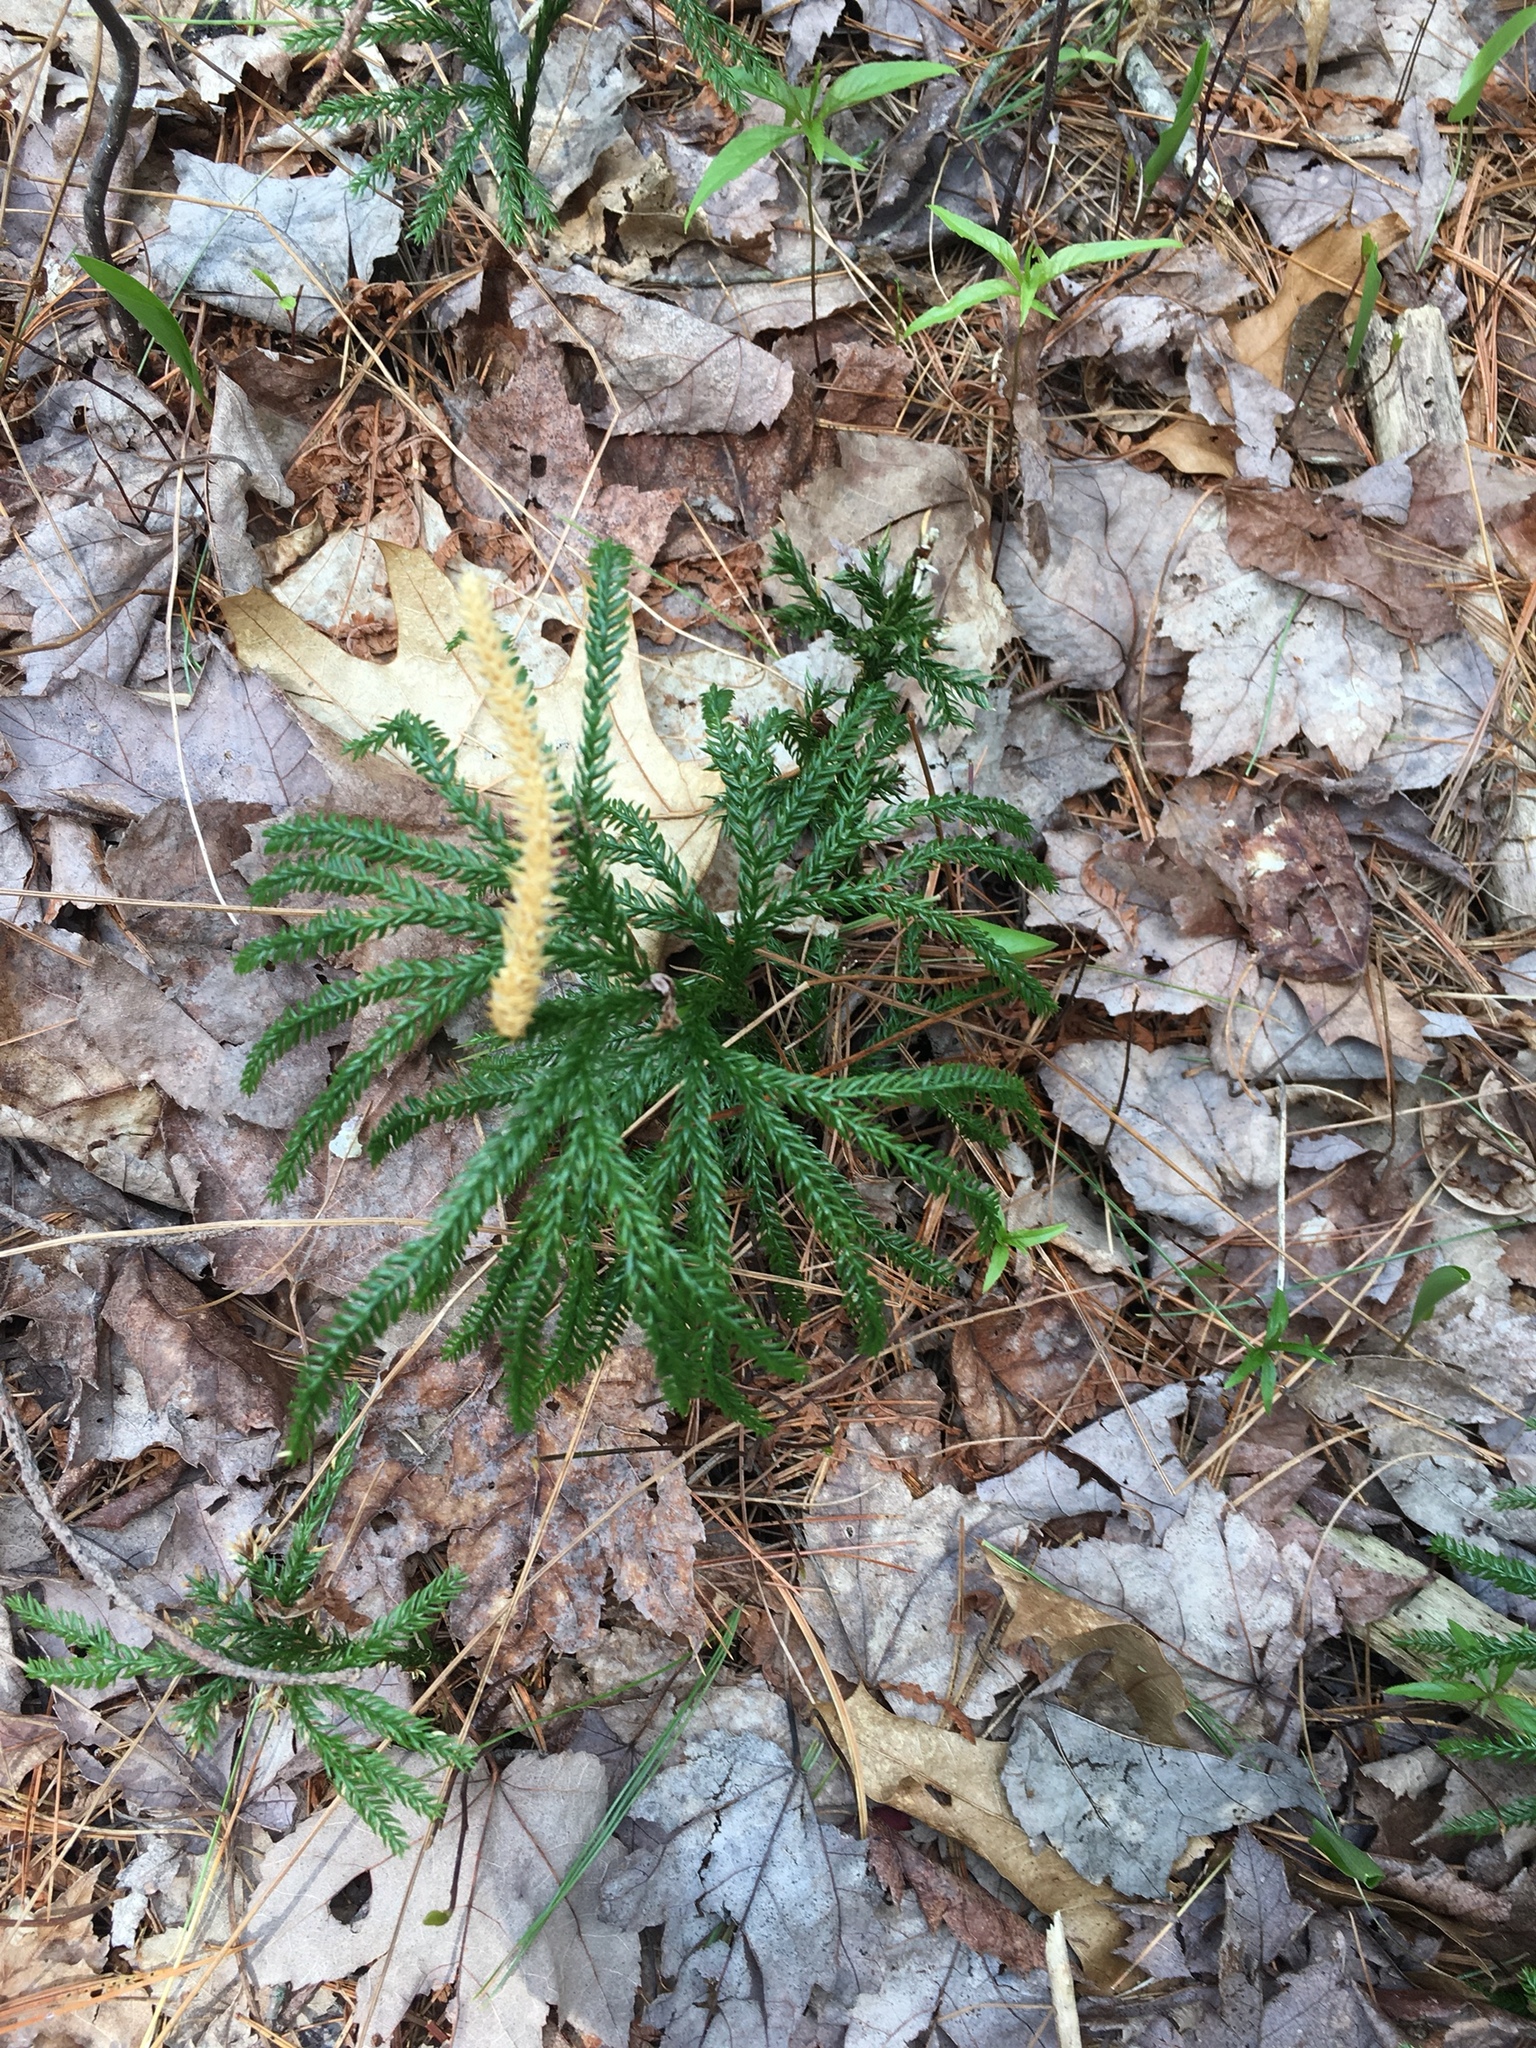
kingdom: Plantae
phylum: Tracheophyta
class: Lycopodiopsida
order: Lycopodiales
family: Lycopodiaceae
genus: Dendrolycopodium
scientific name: Dendrolycopodium obscurum
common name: Common ground-pine
